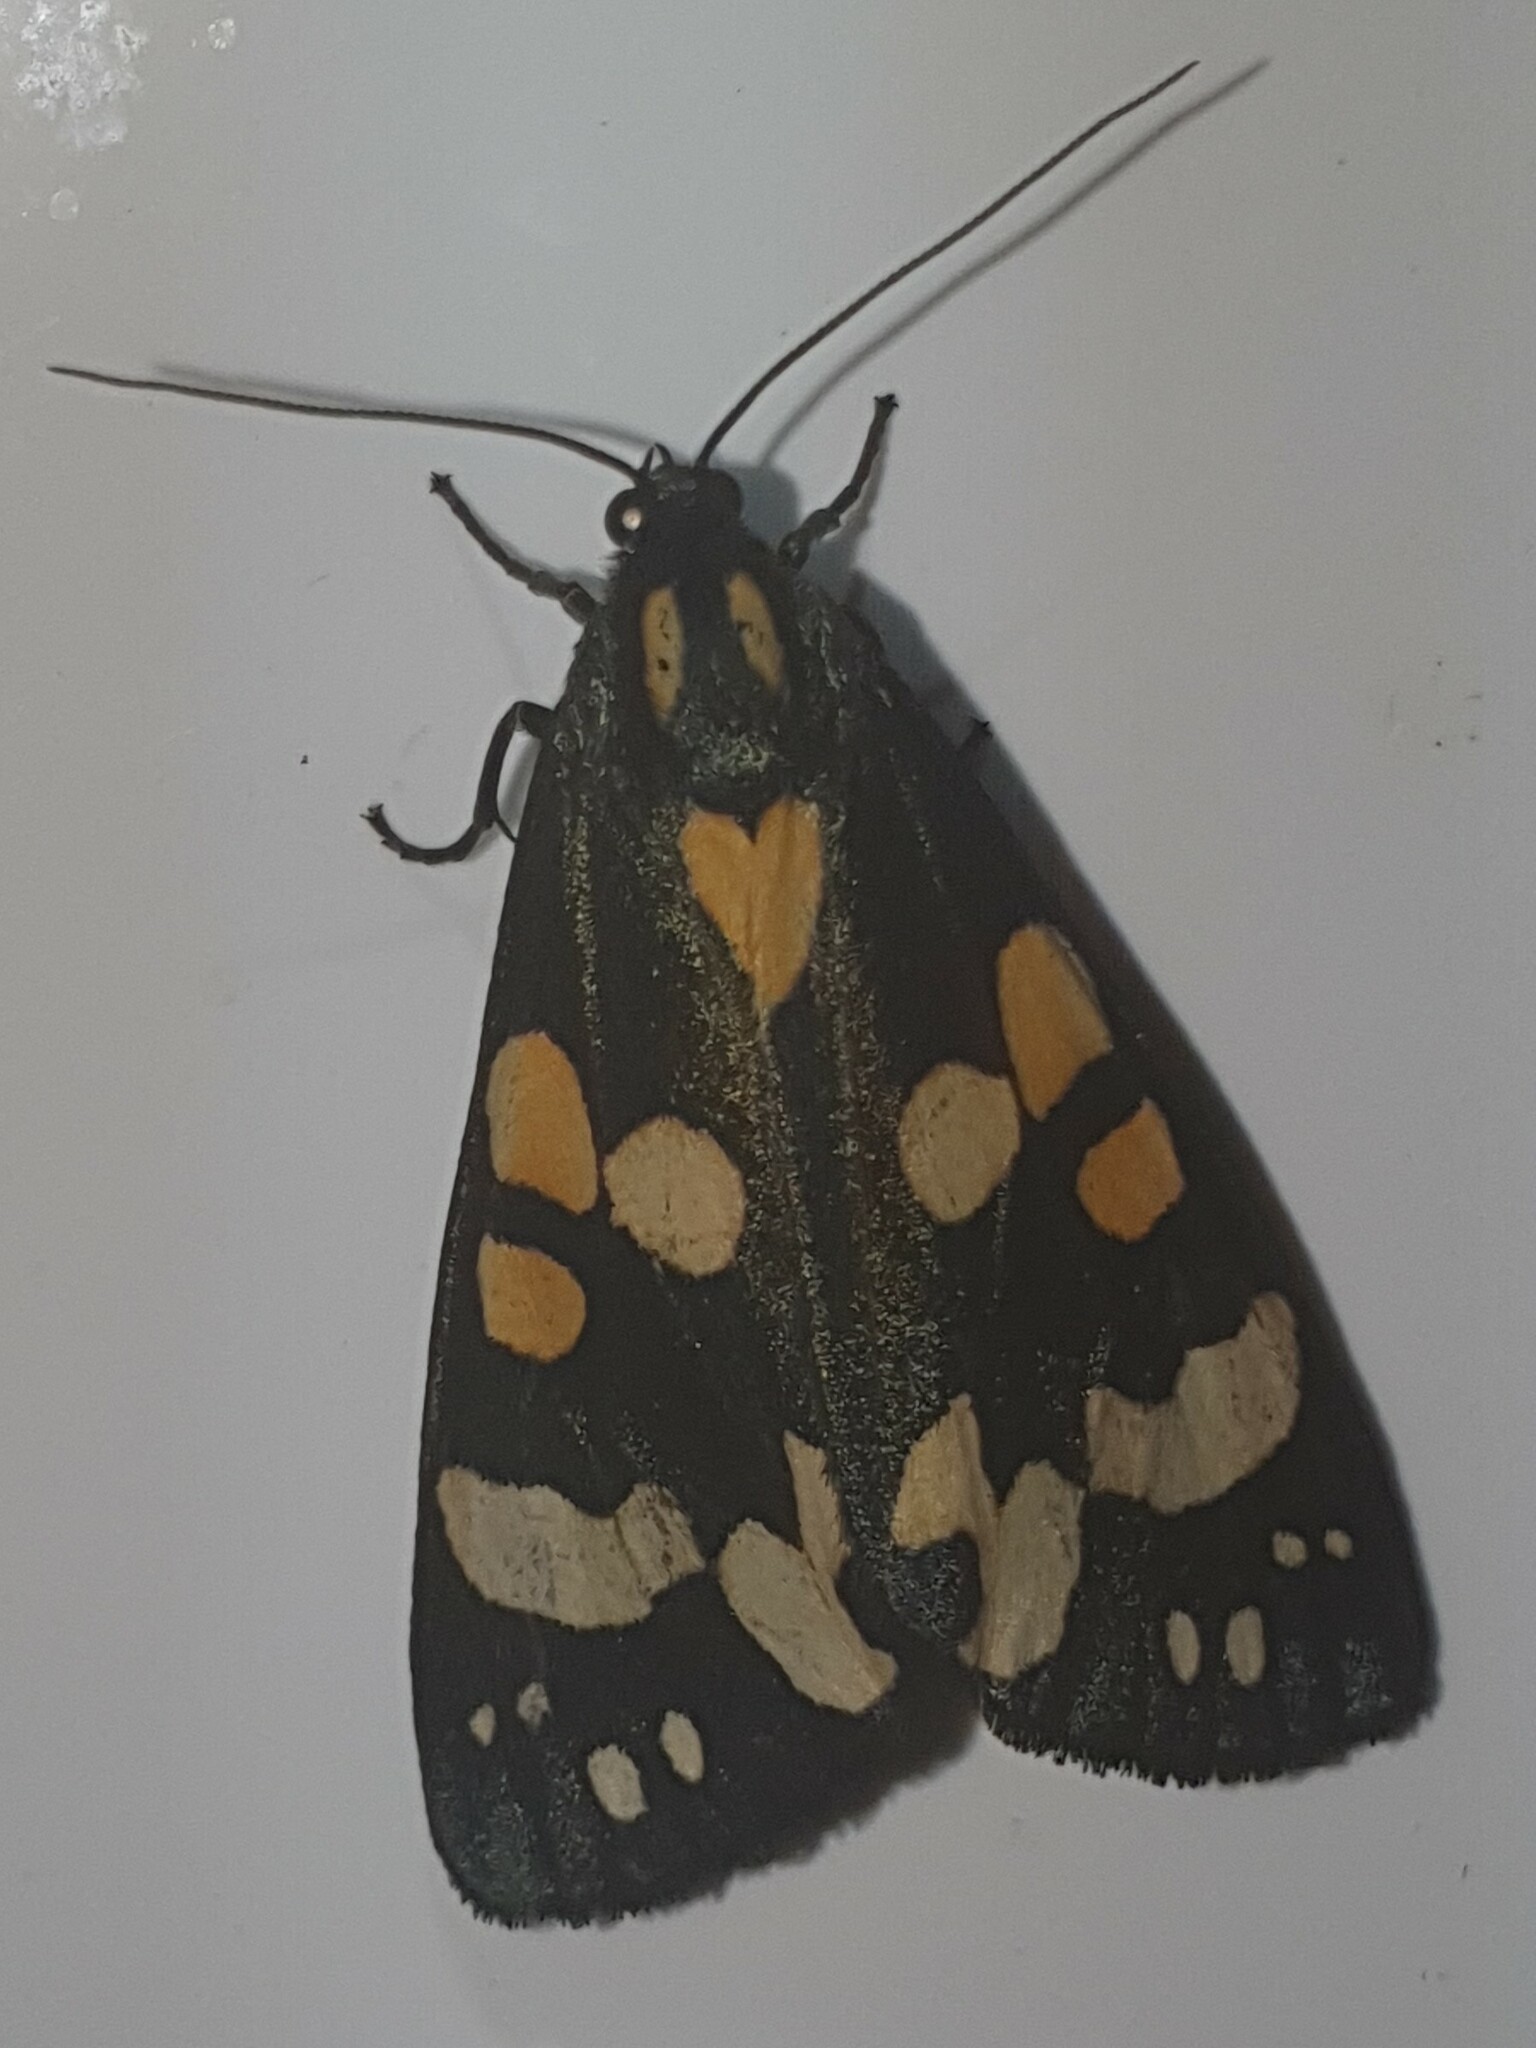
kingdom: Animalia
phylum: Arthropoda
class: Insecta
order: Lepidoptera
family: Erebidae
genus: Callimorpha
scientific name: Callimorpha dominula
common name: Scarlet tiger
